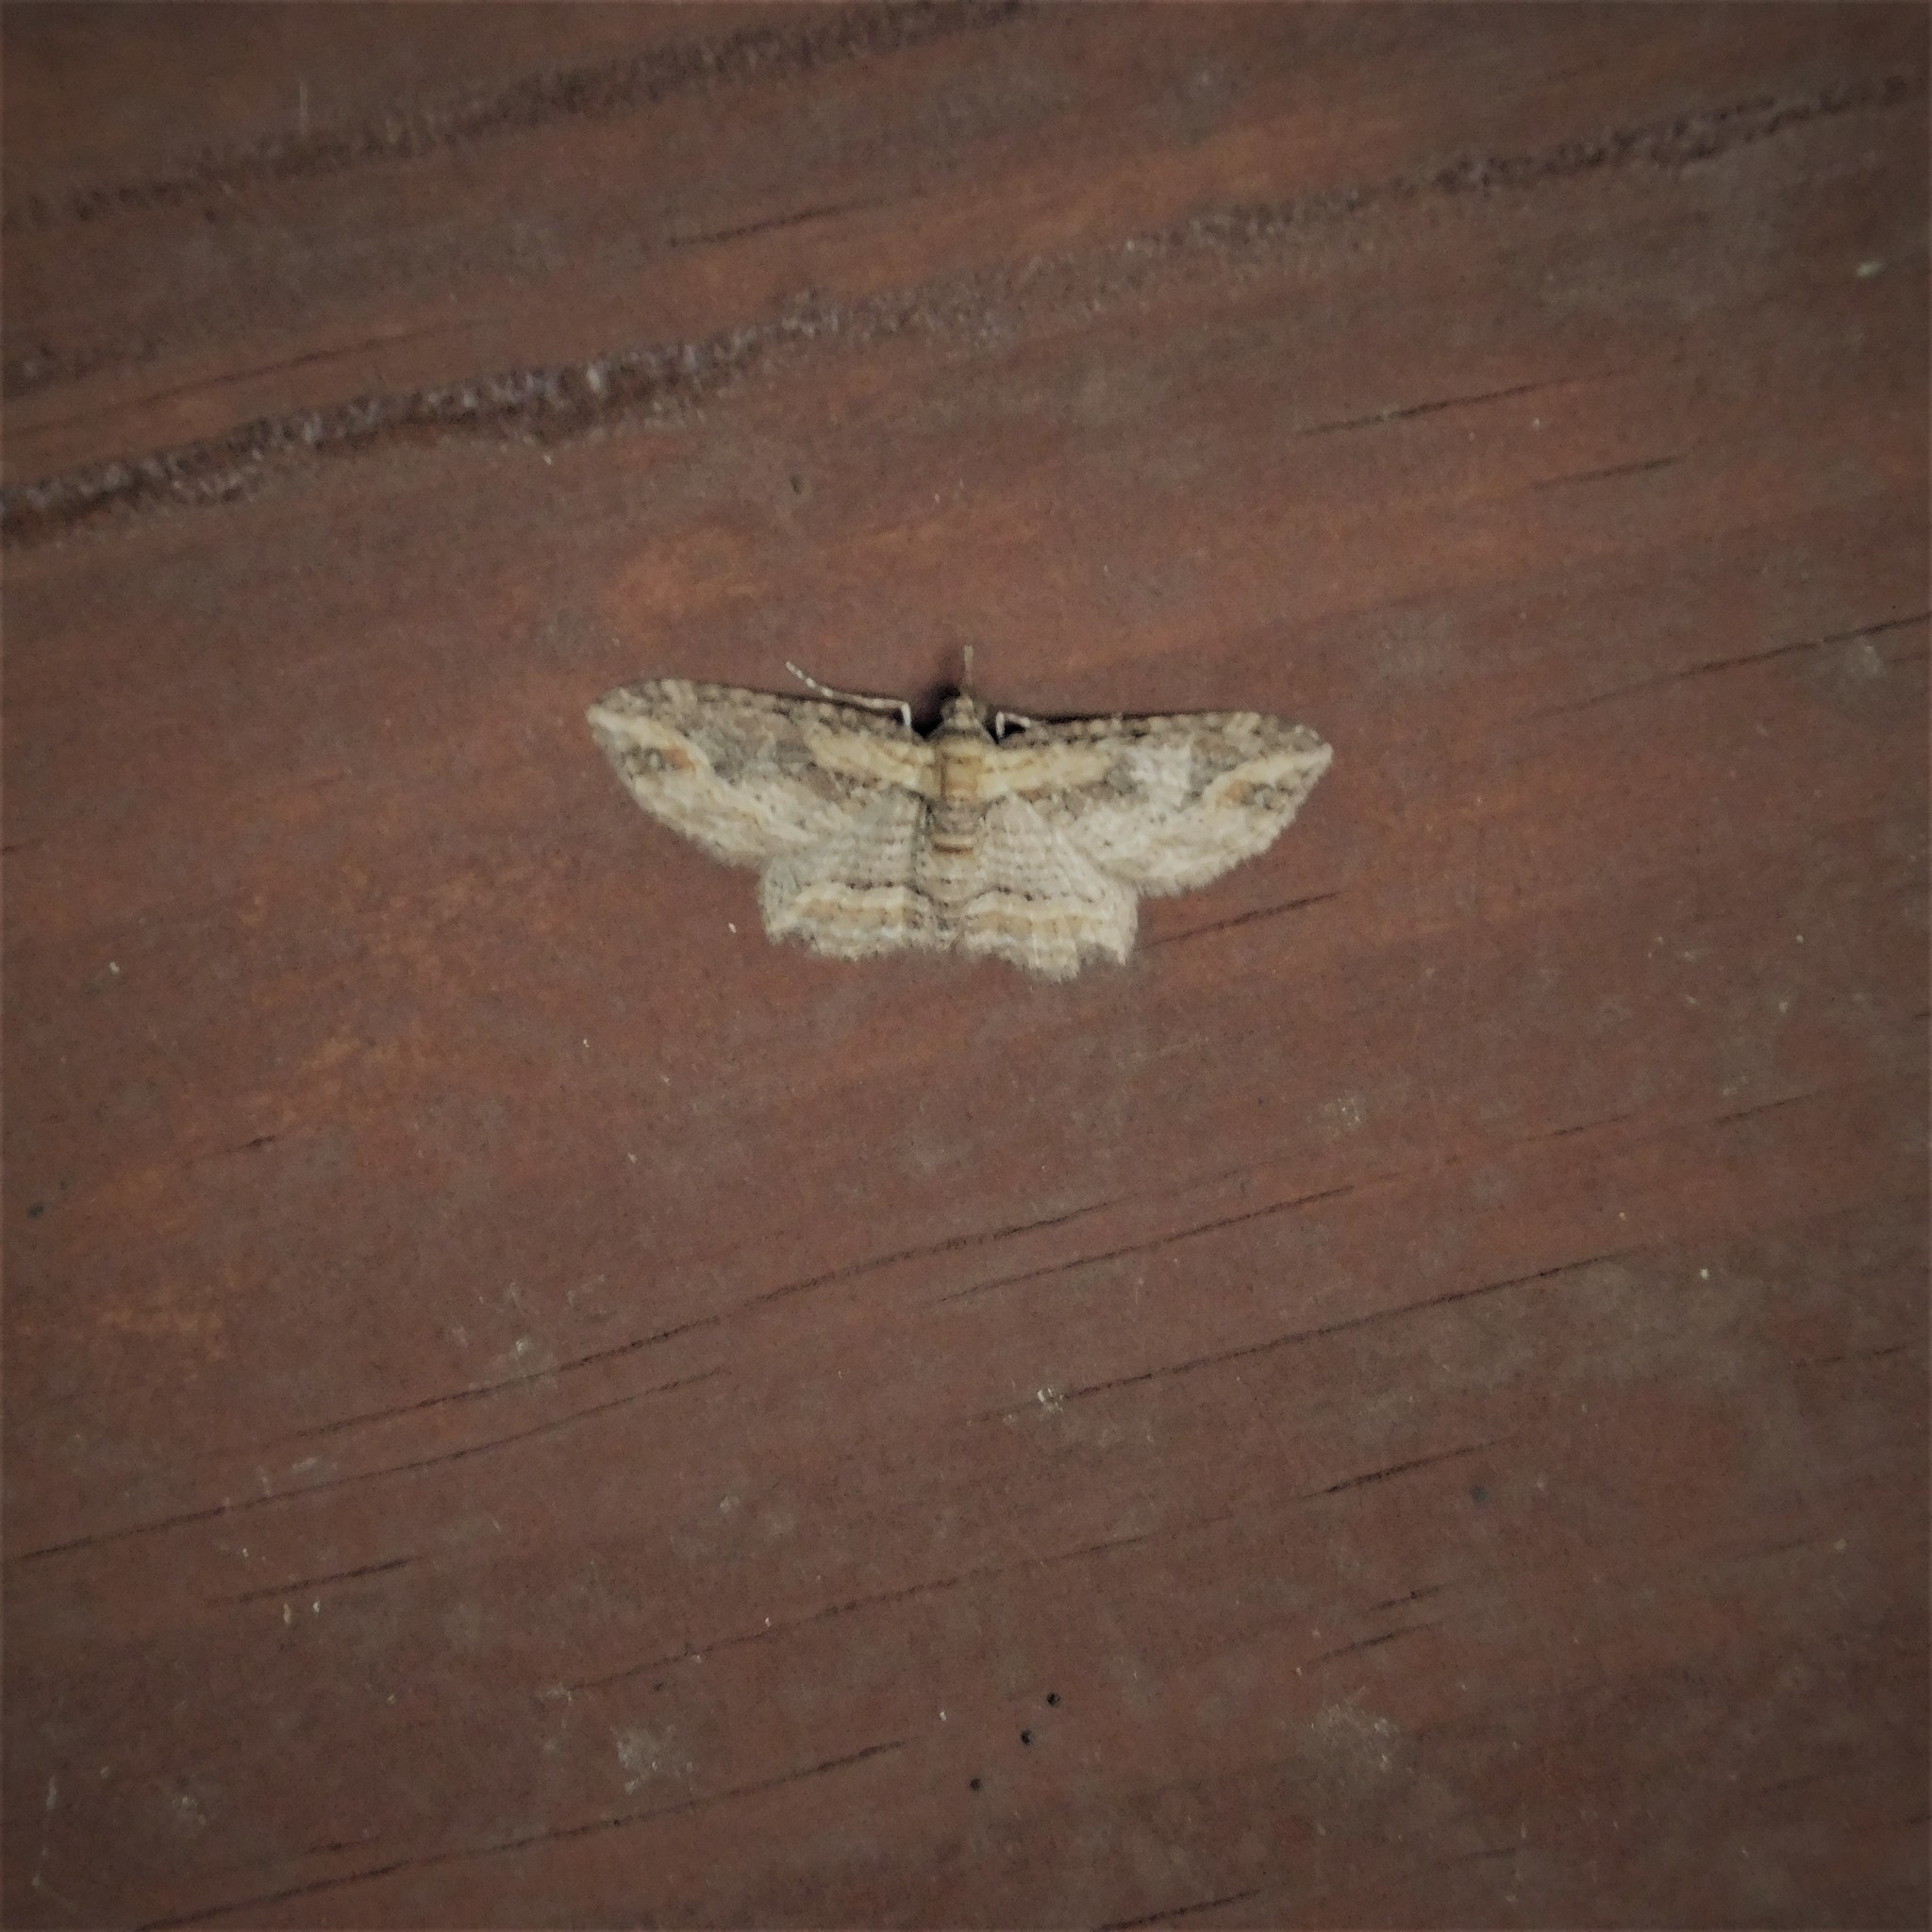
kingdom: Animalia
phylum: Arthropoda
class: Insecta
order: Lepidoptera
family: Geometridae
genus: Chloroclystis
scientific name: Chloroclystis filata
